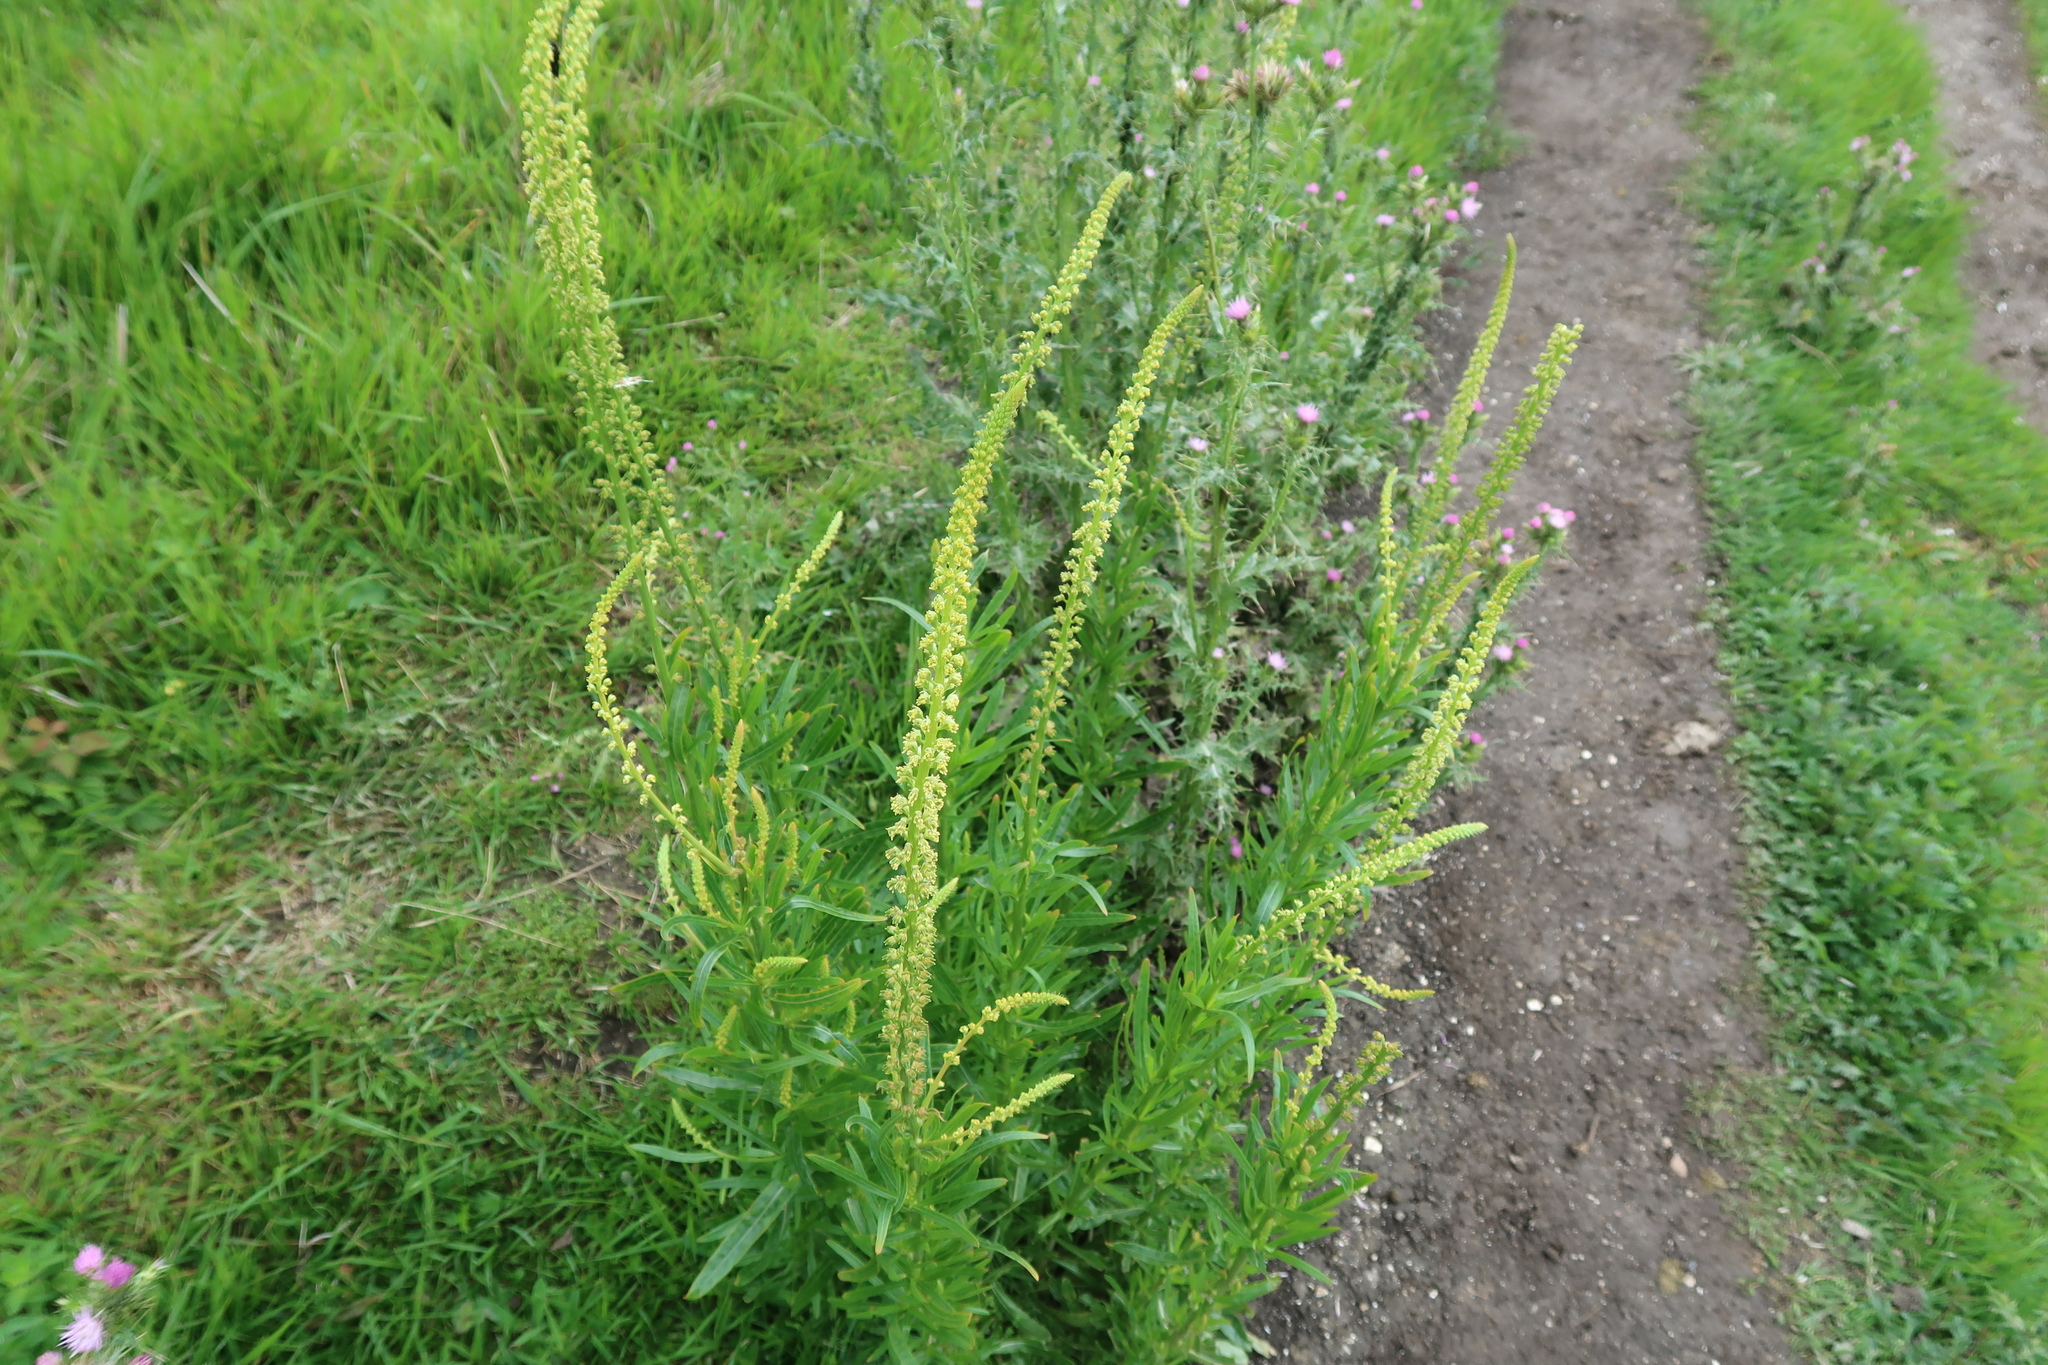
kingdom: Plantae
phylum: Tracheophyta
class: Magnoliopsida
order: Brassicales
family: Resedaceae
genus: Reseda
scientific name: Reseda luteola
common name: Weld
